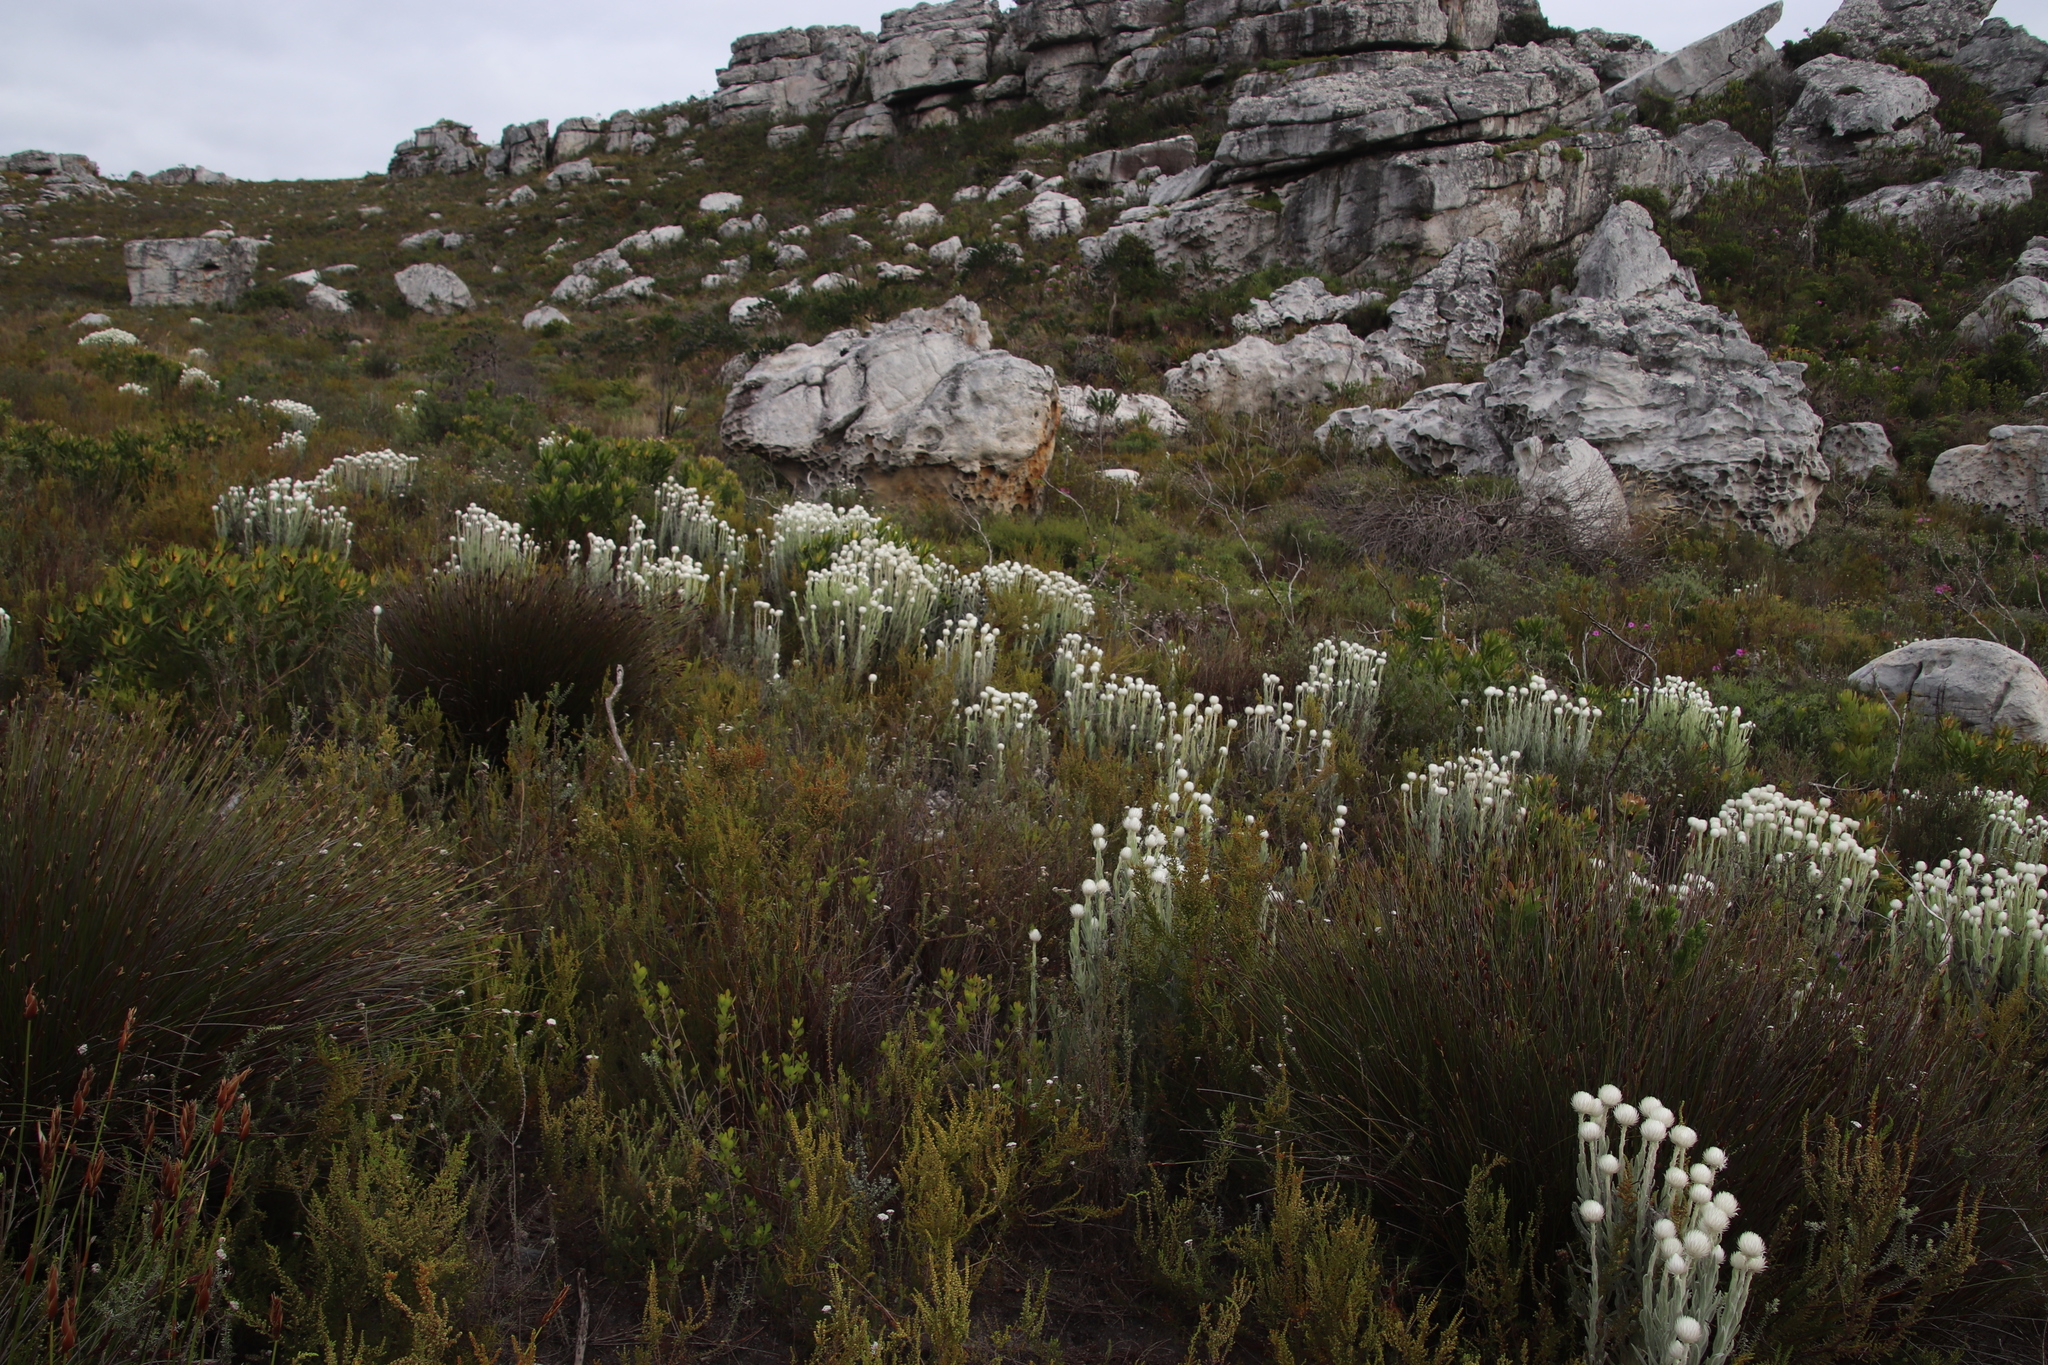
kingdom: Plantae
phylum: Tracheophyta
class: Magnoliopsida
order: Asterales
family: Asteraceae
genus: Syncarpha
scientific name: Syncarpha vestita
